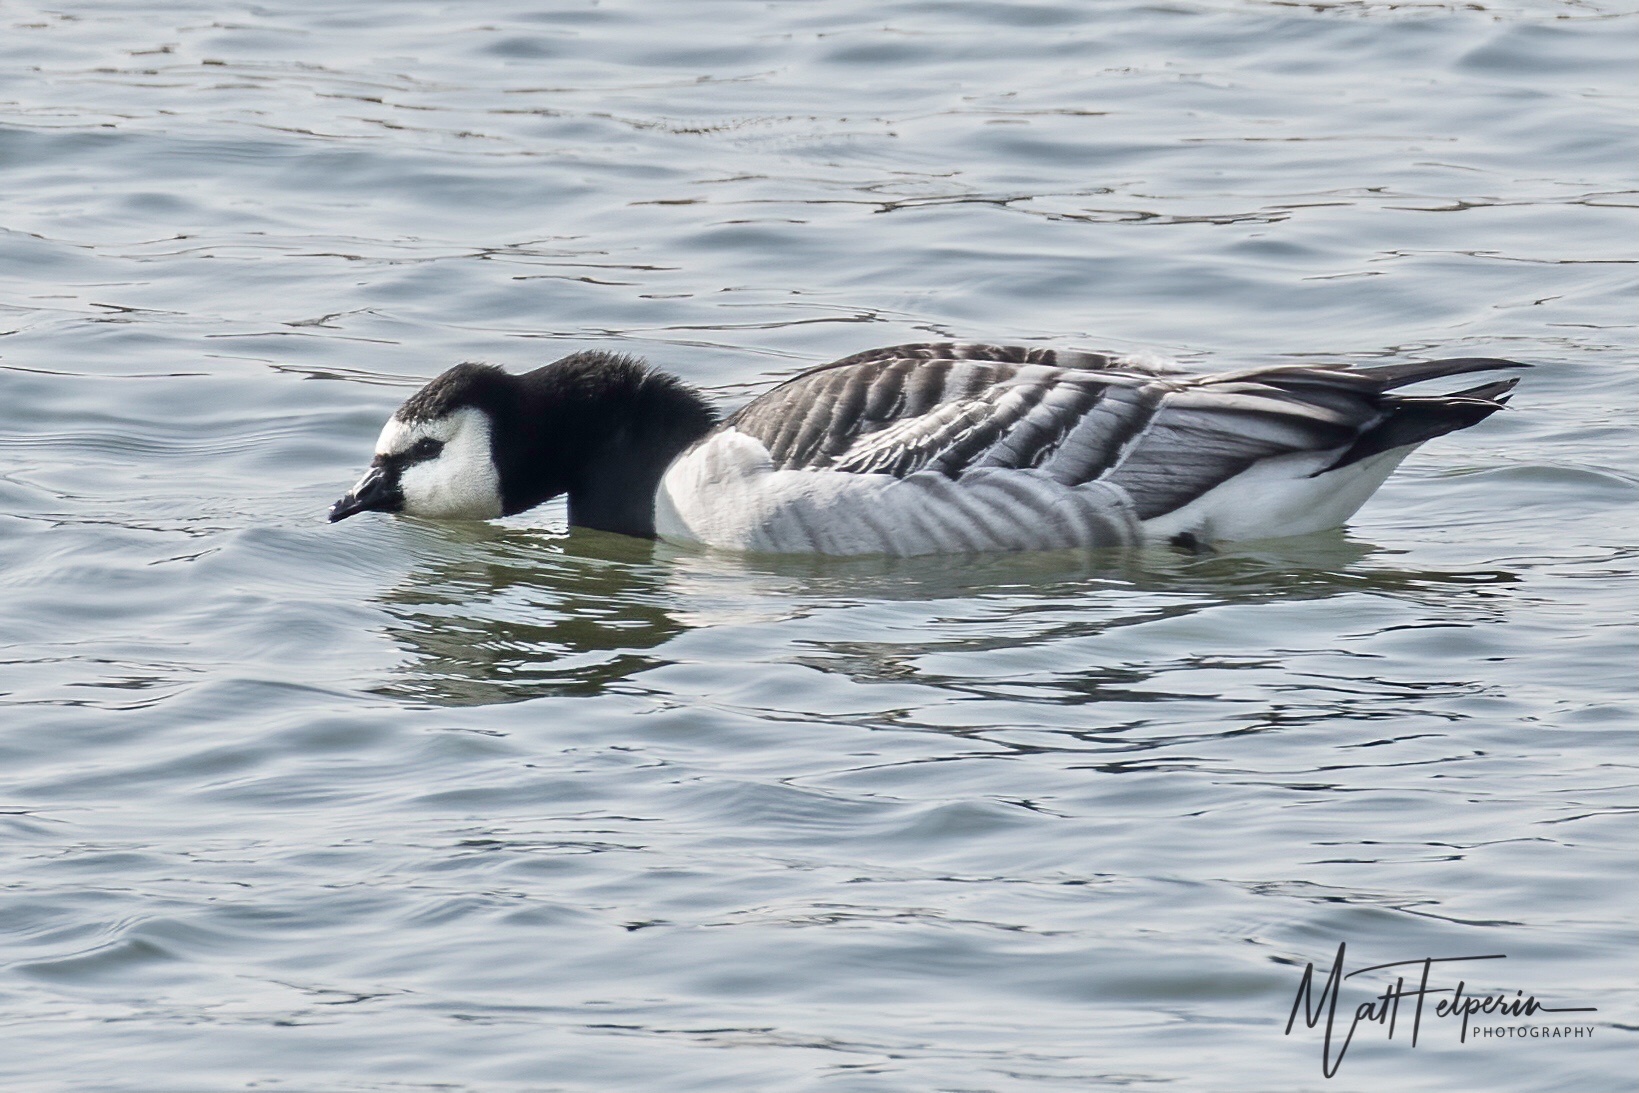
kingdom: Animalia
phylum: Chordata
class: Aves
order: Anseriformes
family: Anatidae
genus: Branta
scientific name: Branta leucopsis
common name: Barnacle goose
